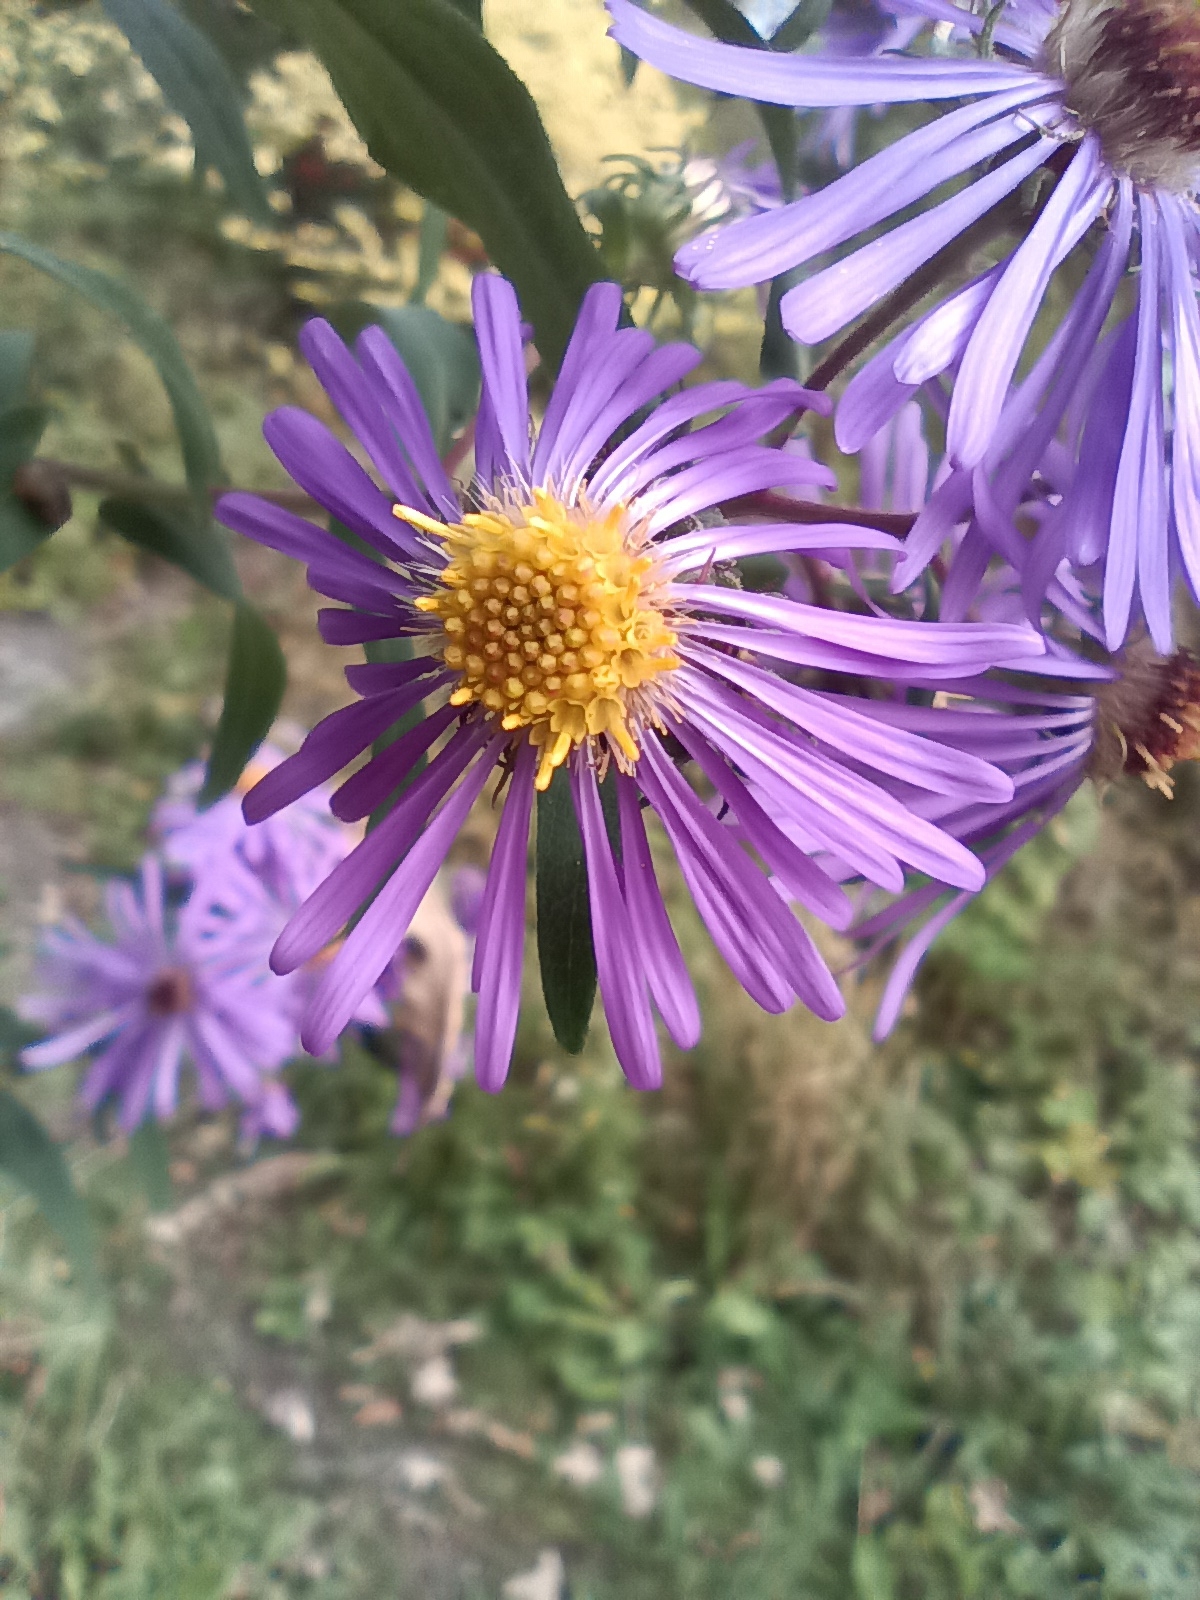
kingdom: Plantae
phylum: Tracheophyta
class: Magnoliopsida
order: Asterales
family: Asteraceae
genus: Symphyotrichum
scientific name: Symphyotrichum novae-angliae
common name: Michaelmas daisy
